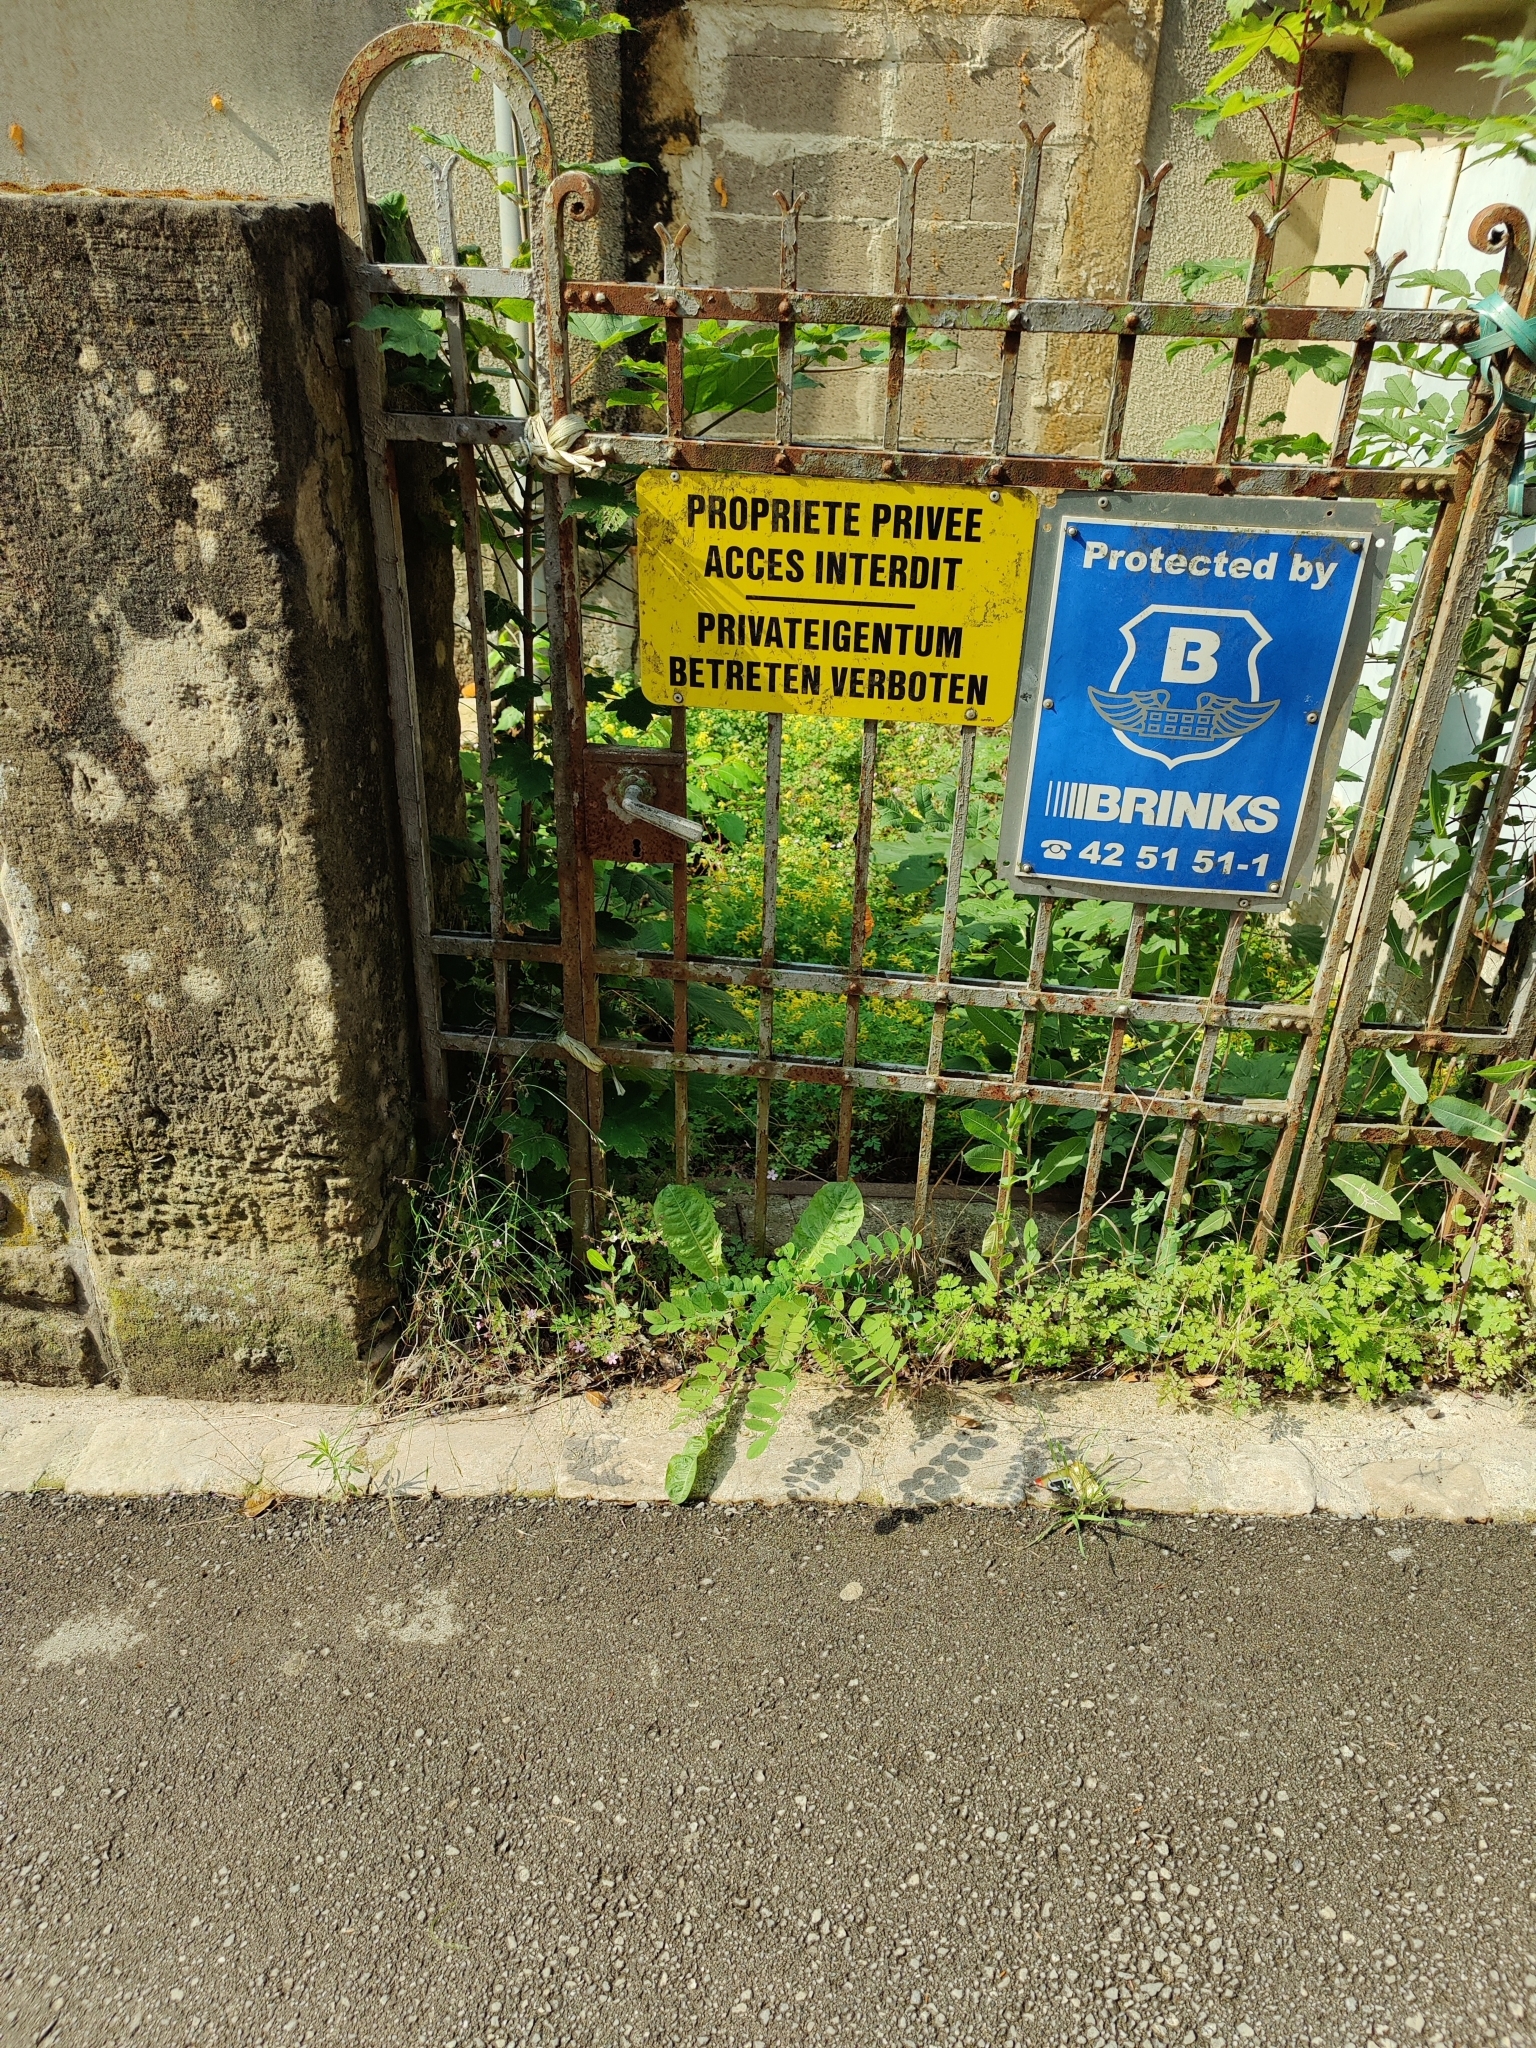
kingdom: Plantae
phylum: Tracheophyta
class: Magnoliopsida
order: Fabales
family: Fabaceae
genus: Robinia
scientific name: Robinia pseudoacacia
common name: Black locust
